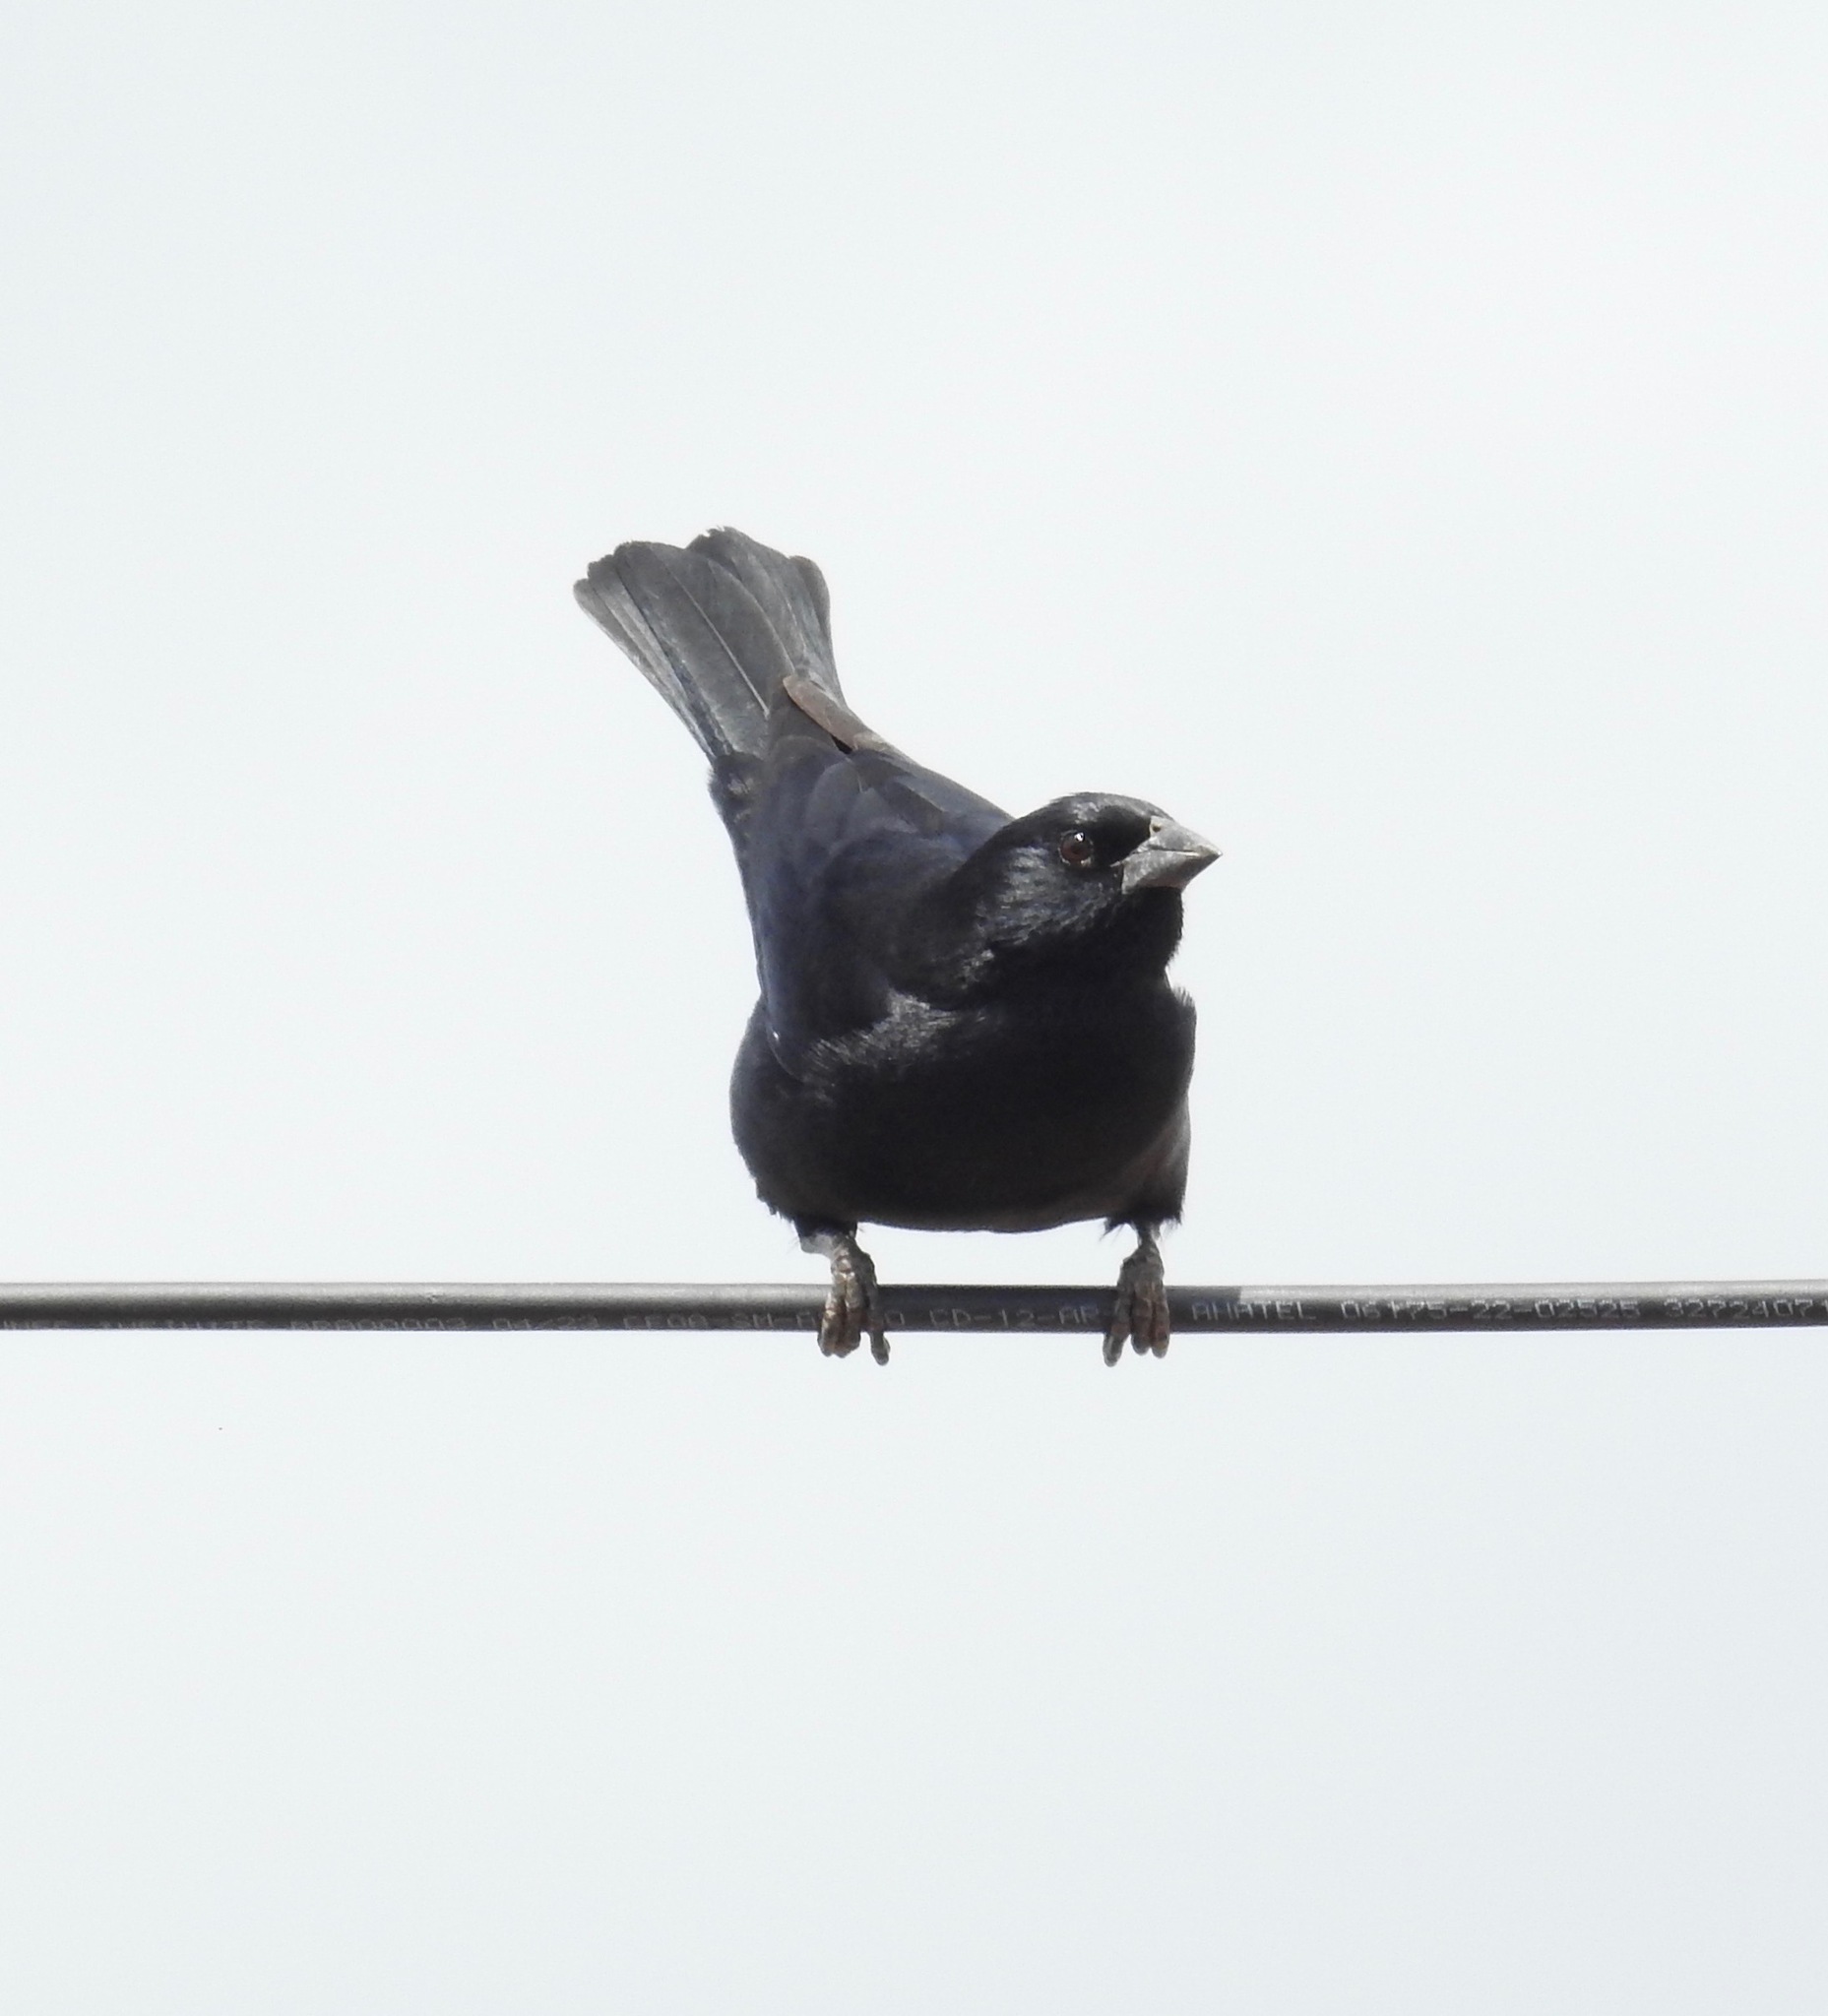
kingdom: Animalia
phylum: Chordata
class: Aves
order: Passeriformes
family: Icteridae
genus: Molothrus
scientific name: Molothrus rufoaxillaris
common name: Screaming cowbird
